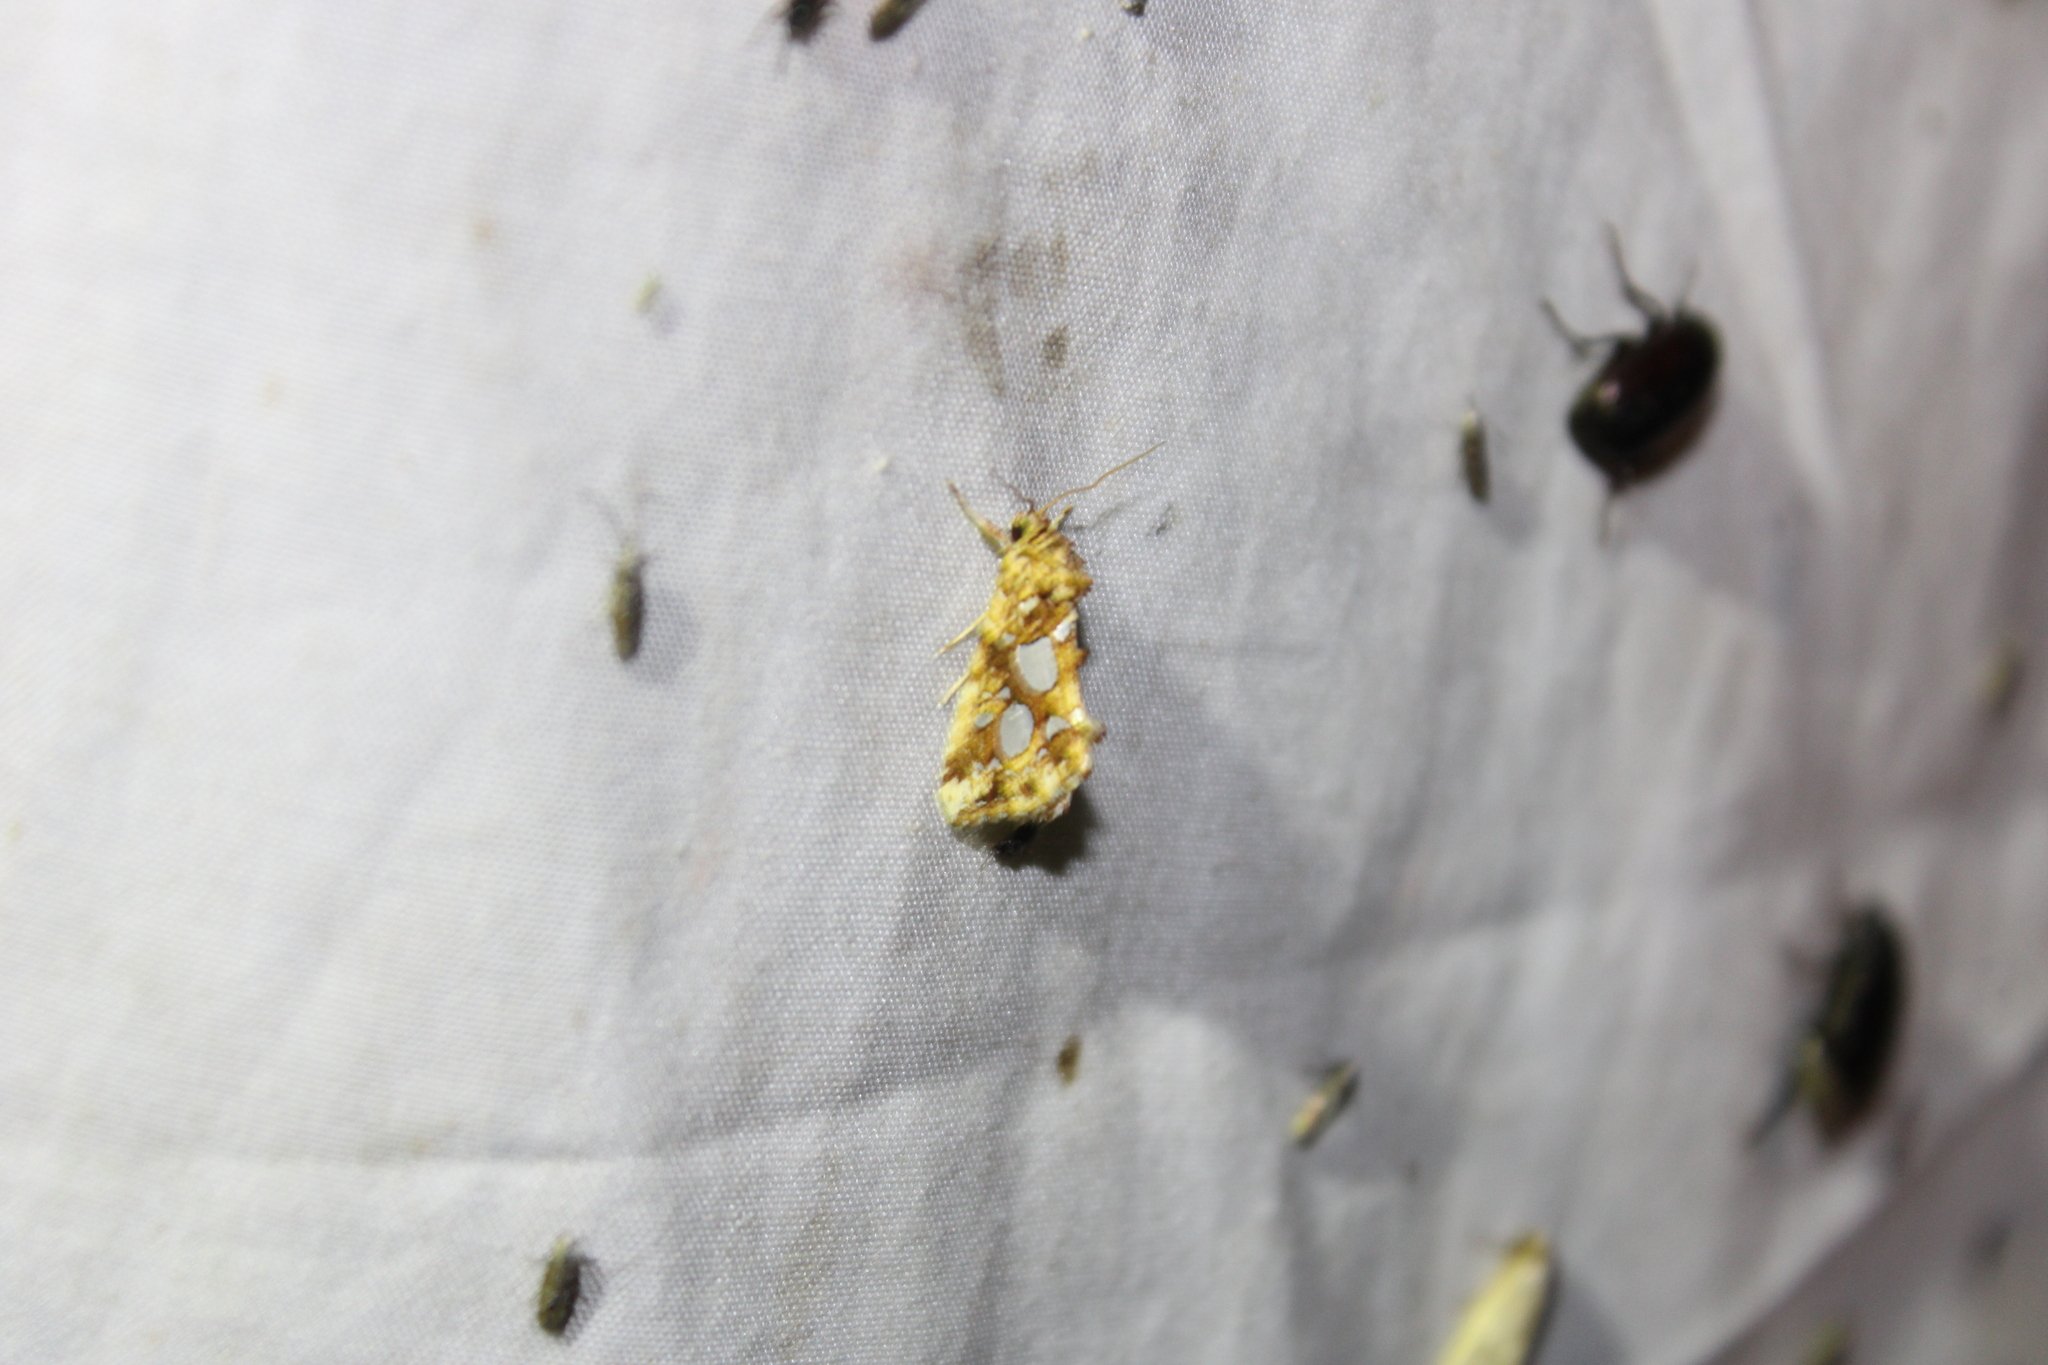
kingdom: Animalia
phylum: Arthropoda
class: Insecta
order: Lepidoptera
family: Noctuidae
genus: Callopistria
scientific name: Callopistria cordata
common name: Silver-spotted fern moth
